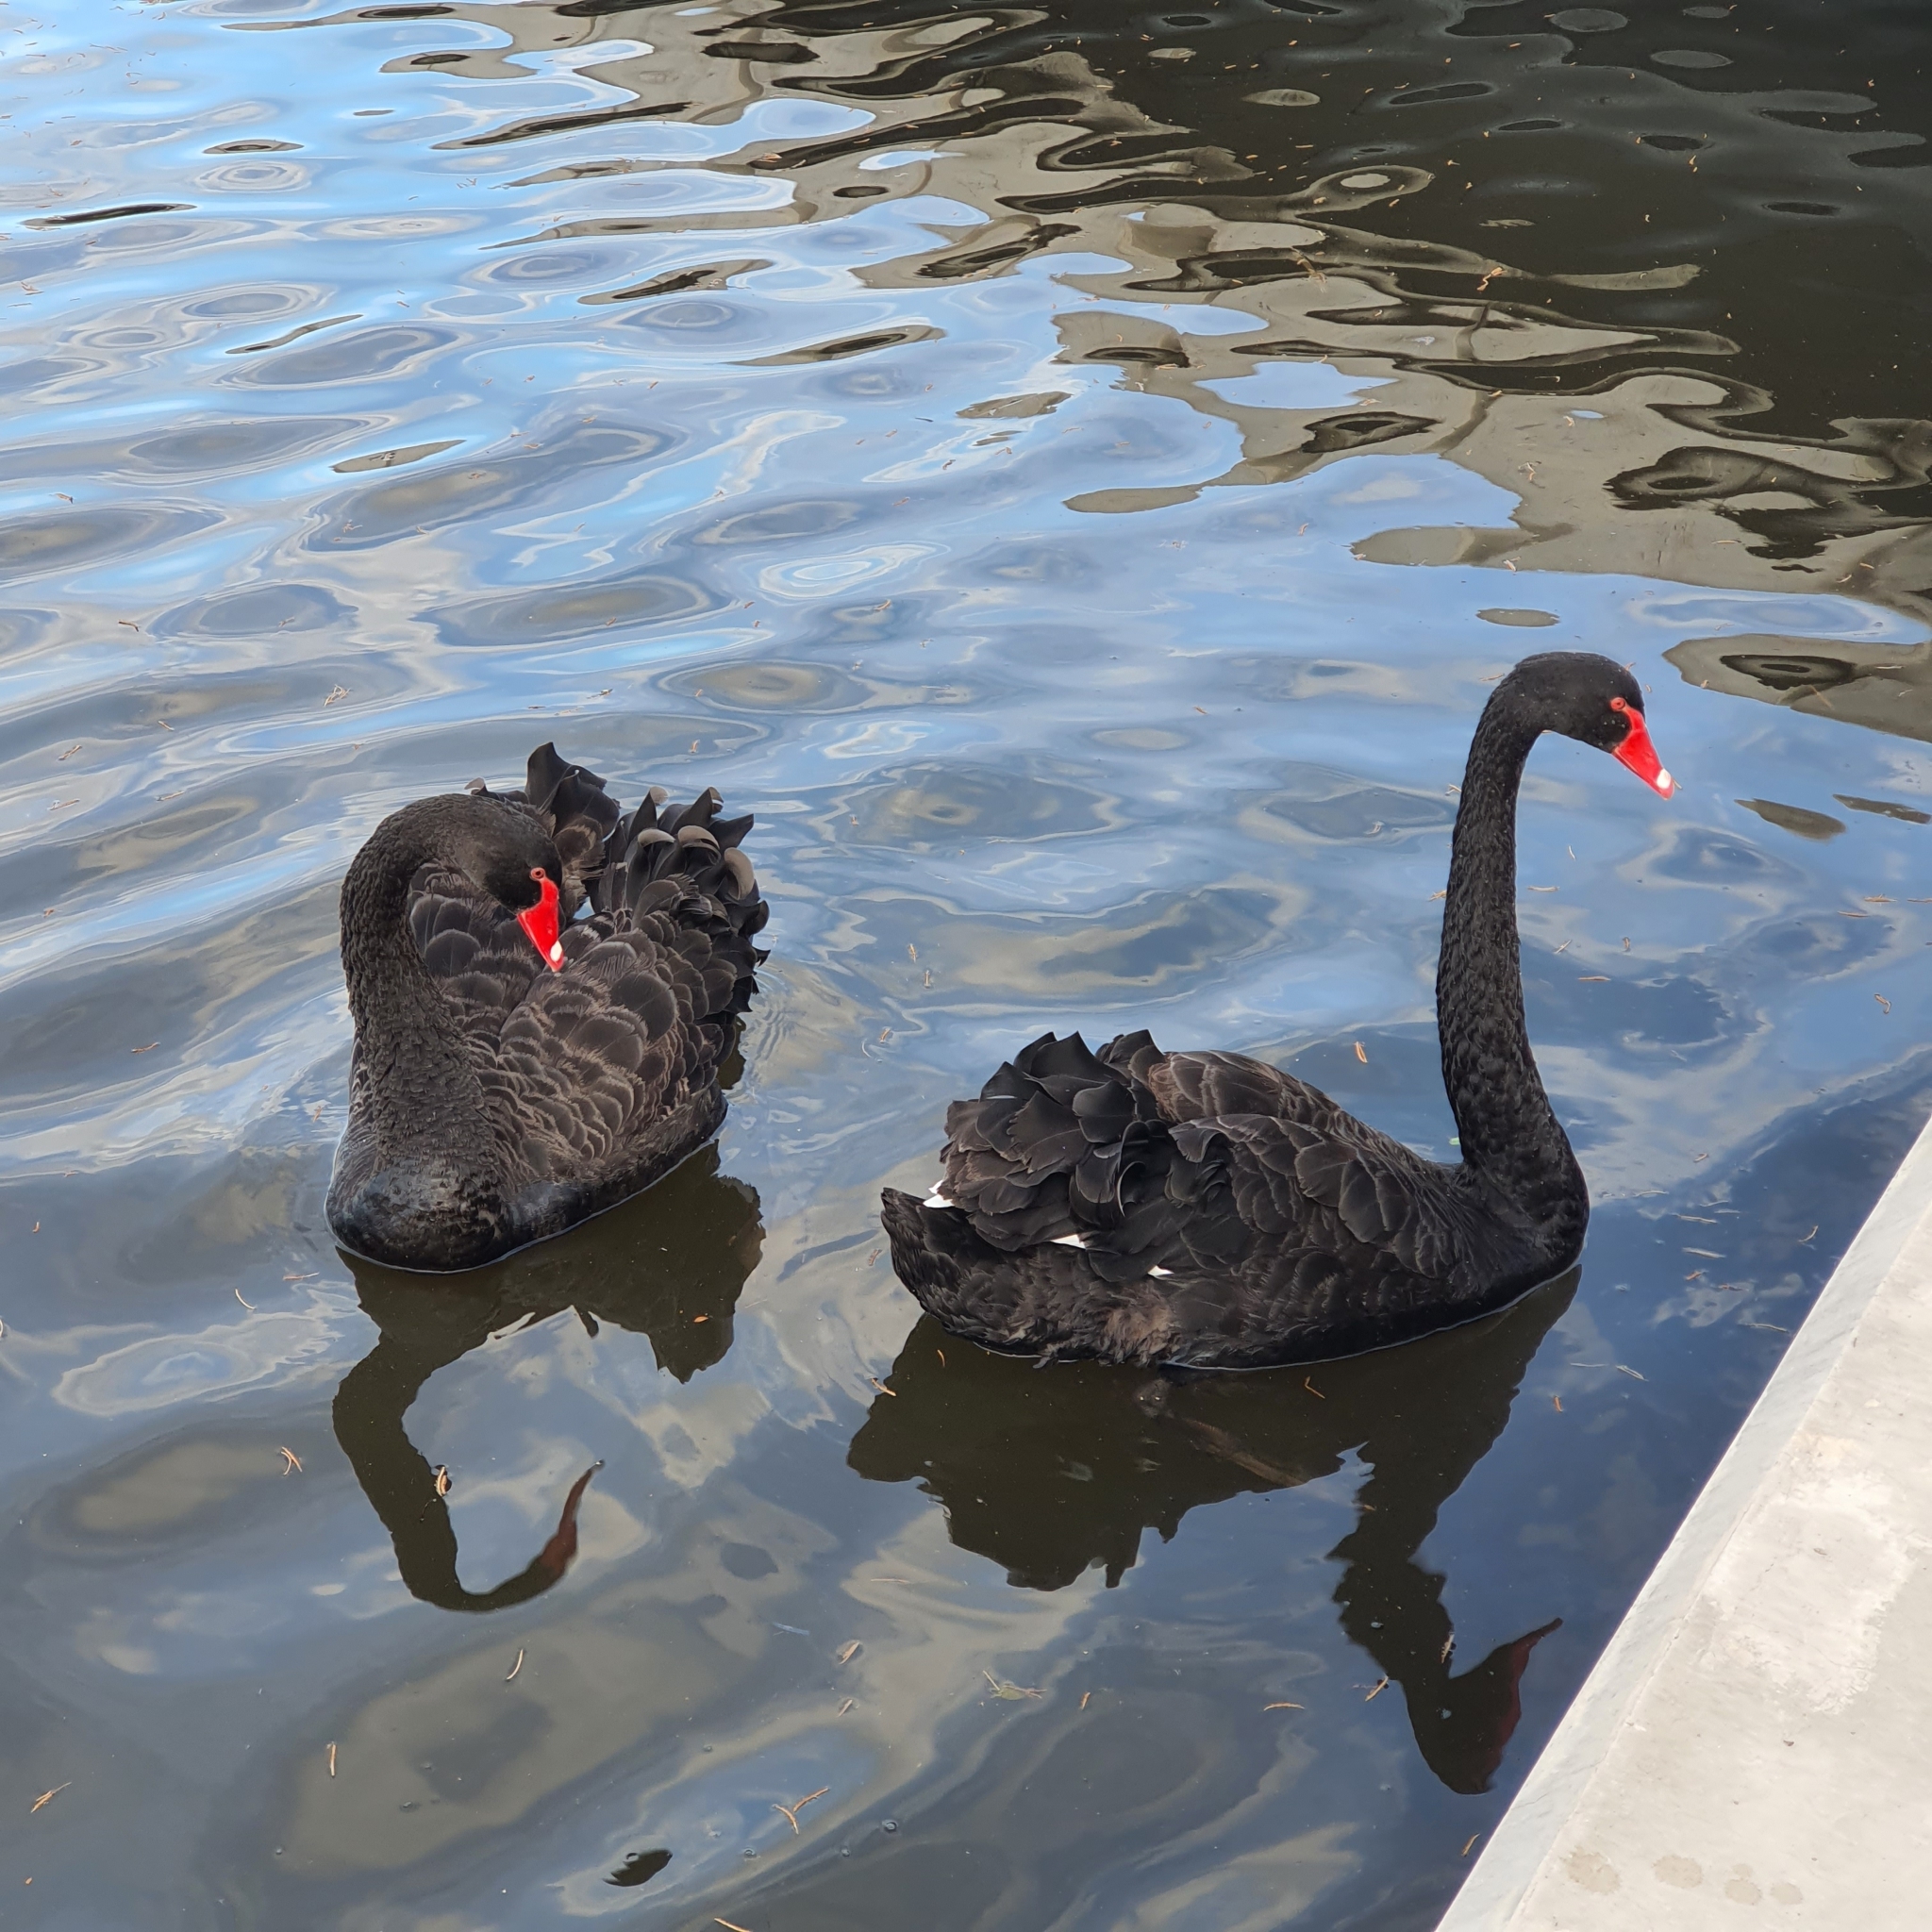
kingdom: Animalia
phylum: Chordata
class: Aves
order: Anseriformes
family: Anatidae
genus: Cygnus
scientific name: Cygnus atratus
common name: Black swan
